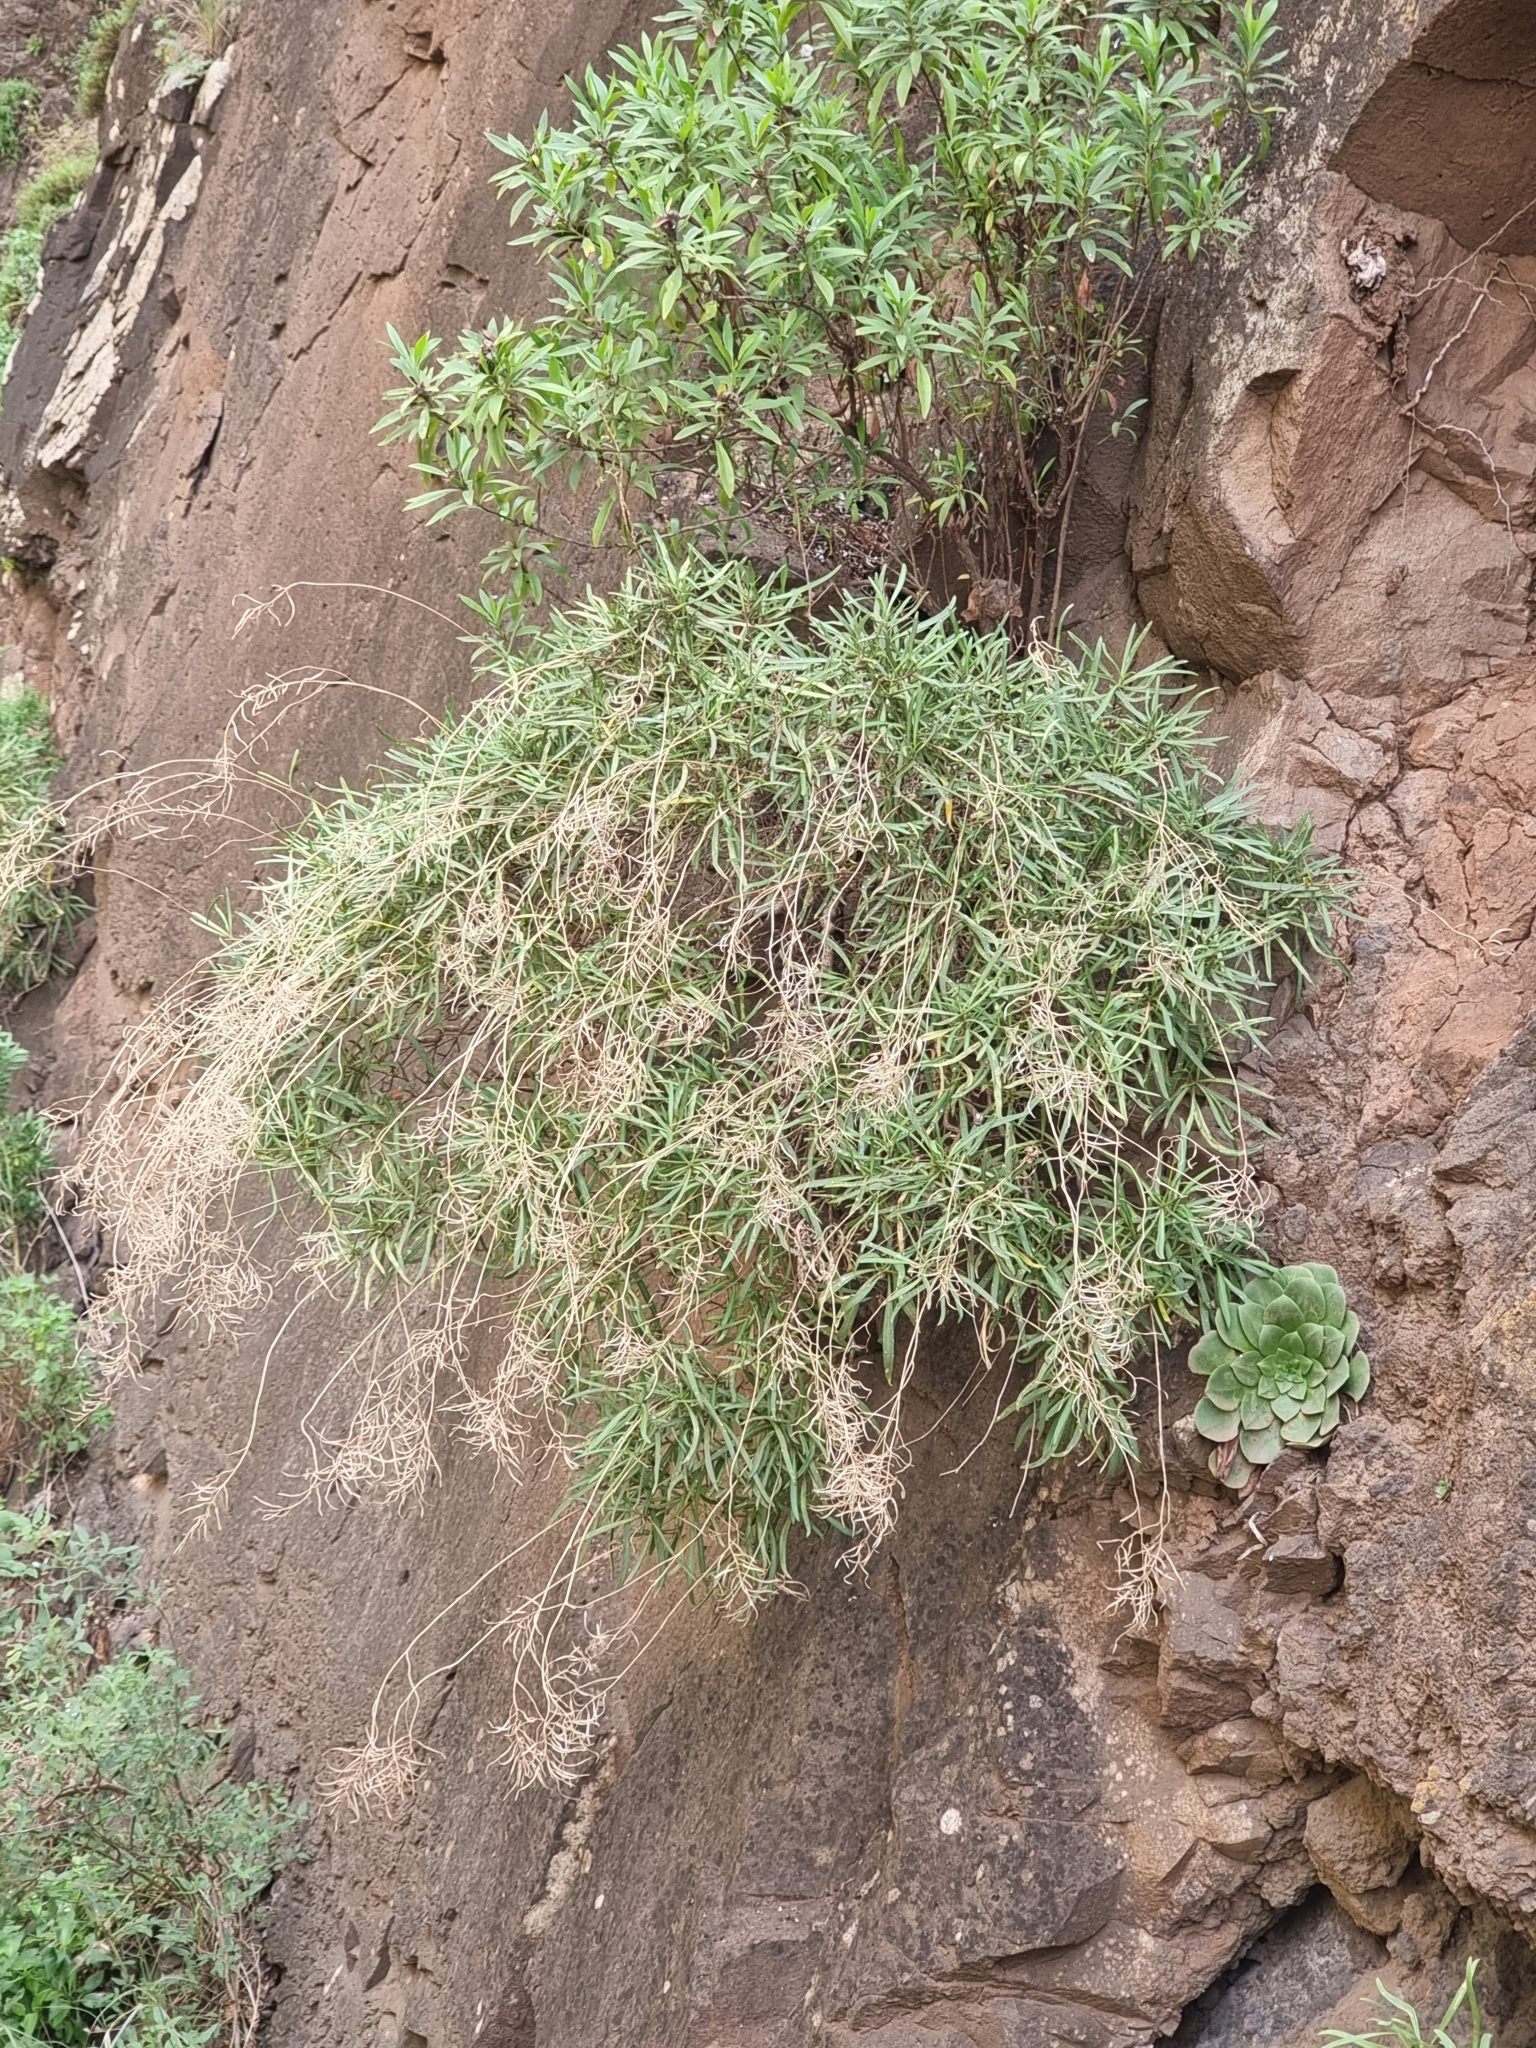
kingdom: Plantae
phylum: Tracheophyta
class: Magnoliopsida
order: Brassicales
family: Brassicaceae
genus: Sinapidendron
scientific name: Sinapidendron angustifolium
